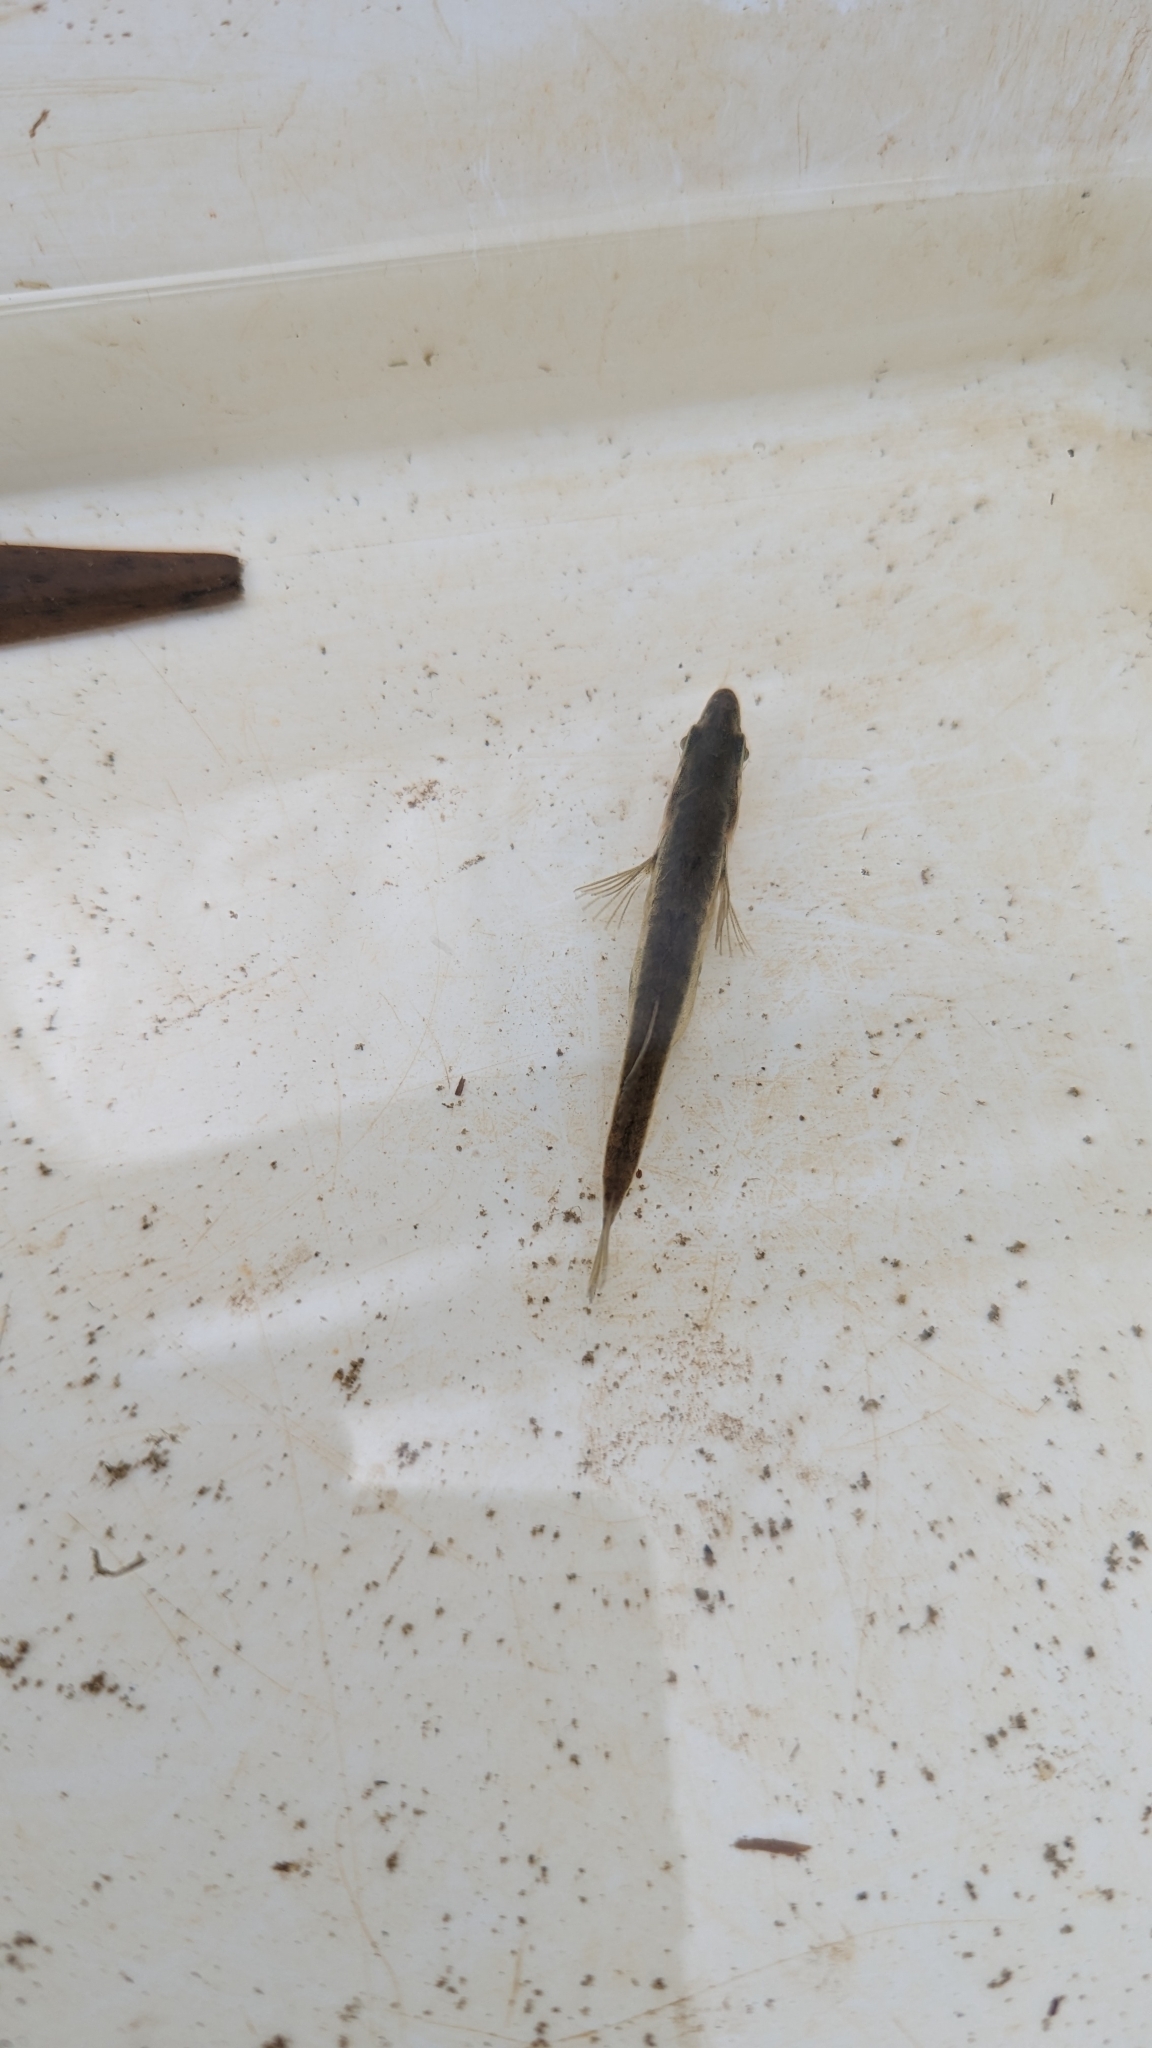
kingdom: Animalia
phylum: Chordata
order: Gasterosteiformes
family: Gasterosteidae
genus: Gasterosteus
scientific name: Gasterosteus aculeatus
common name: Three-spined stickleback
